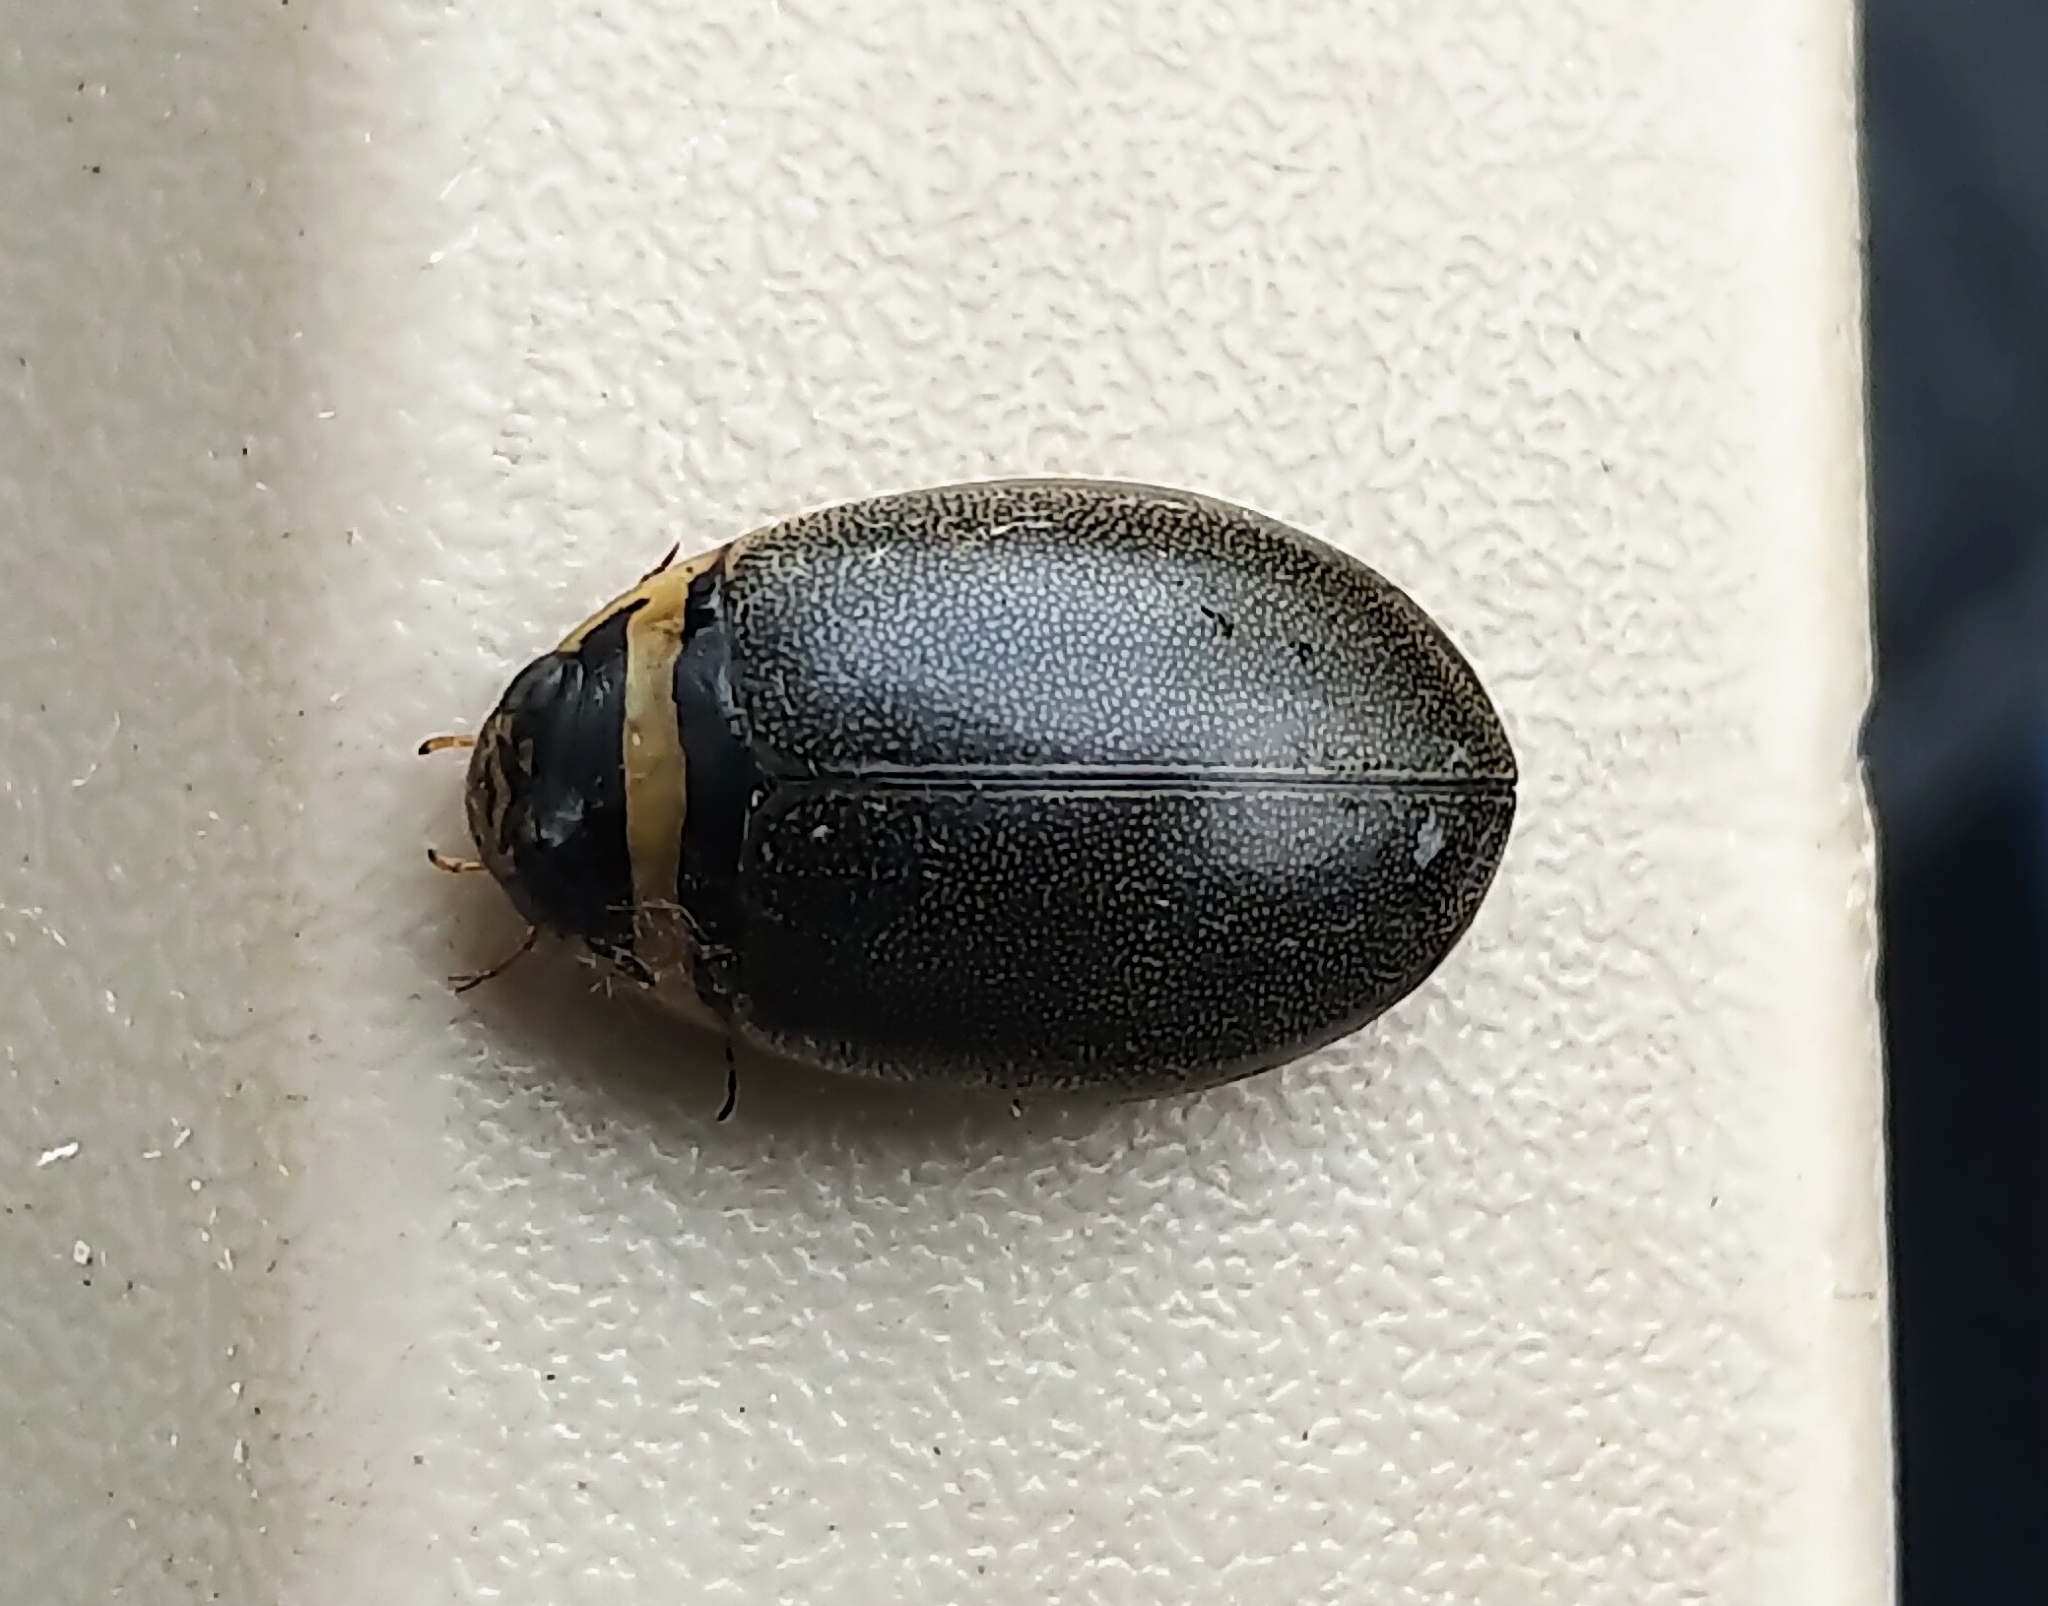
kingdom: Animalia
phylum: Arthropoda
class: Insecta
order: Coleoptera
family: Dytiscidae
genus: Graphoderus
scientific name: Graphoderus occidentalis
